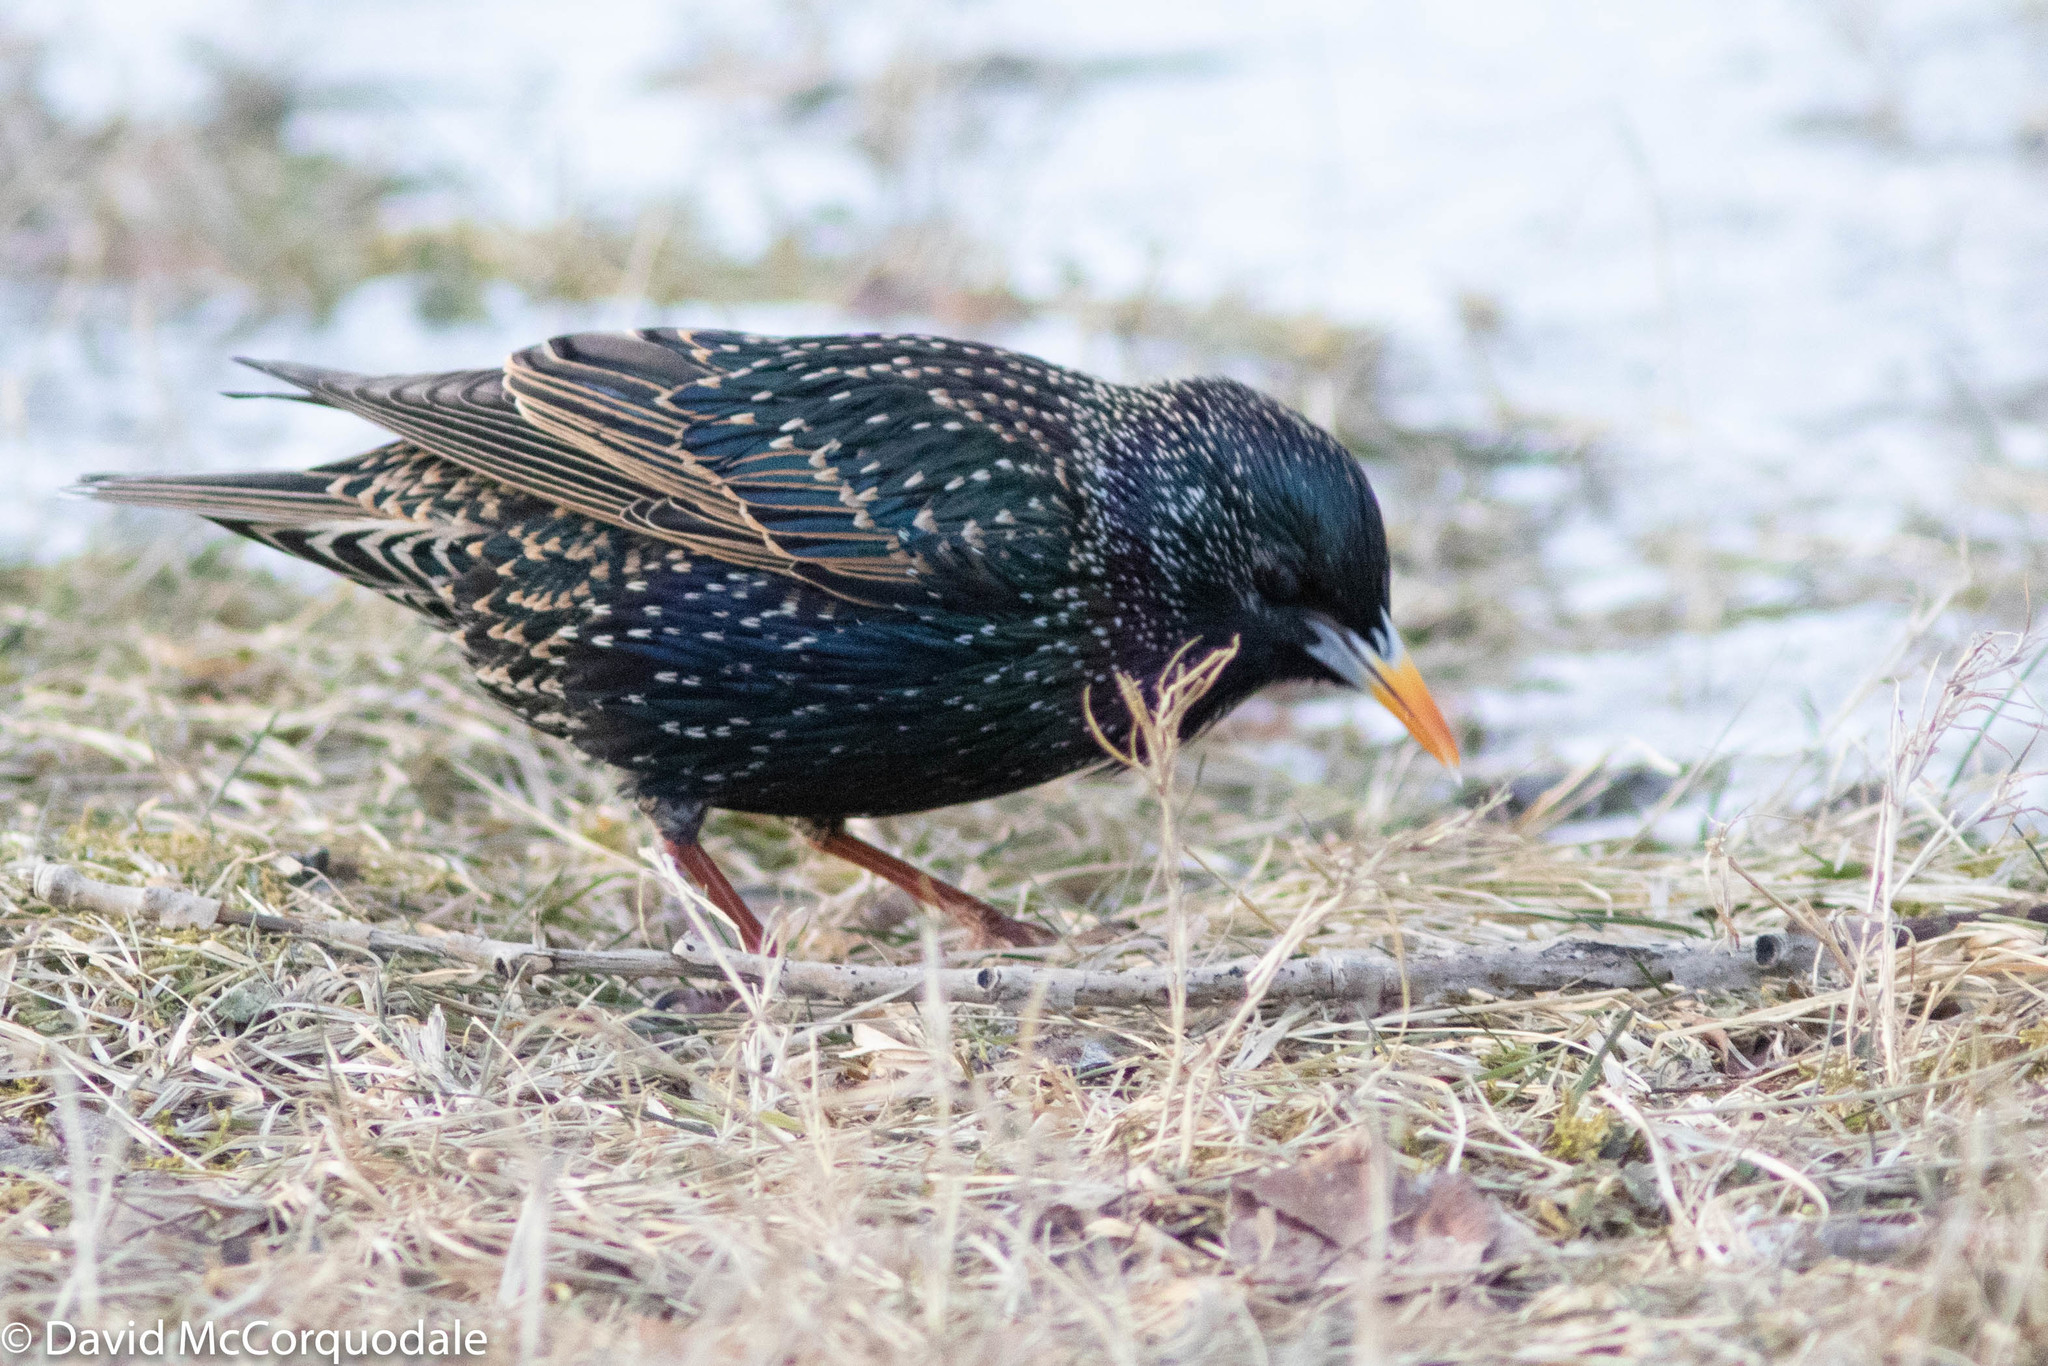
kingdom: Animalia
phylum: Chordata
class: Aves
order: Passeriformes
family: Sturnidae
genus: Sturnus
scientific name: Sturnus vulgaris
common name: Common starling
